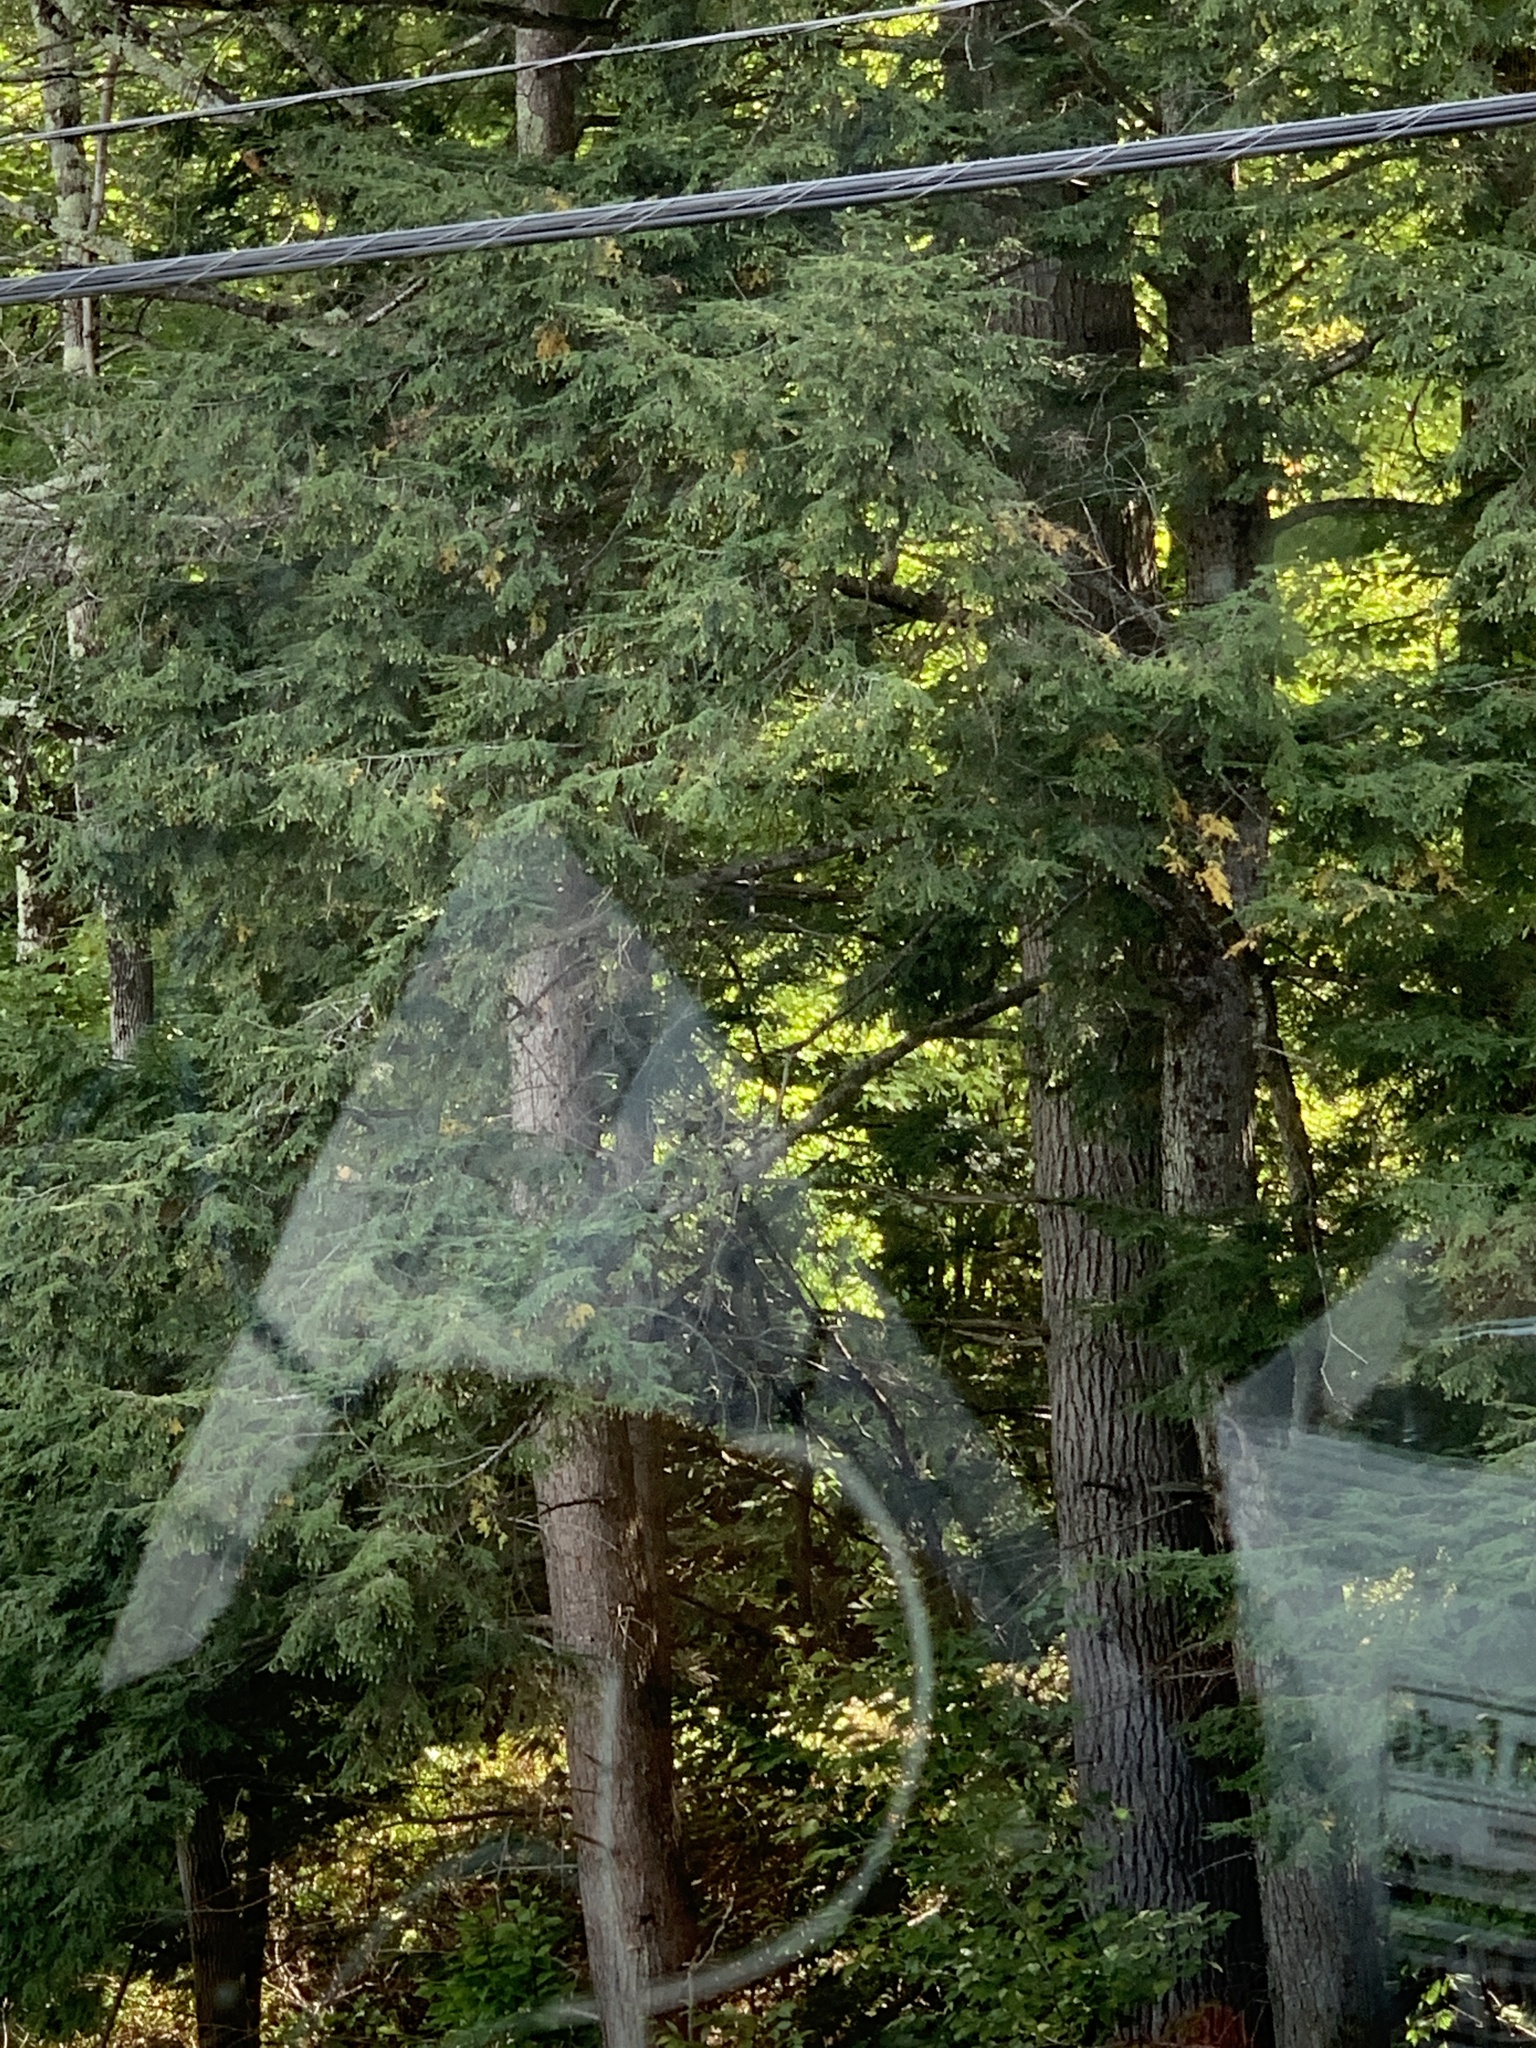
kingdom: Plantae
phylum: Tracheophyta
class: Pinopsida
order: Pinales
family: Pinaceae
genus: Tsuga
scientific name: Tsuga canadensis
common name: Eastern hemlock
